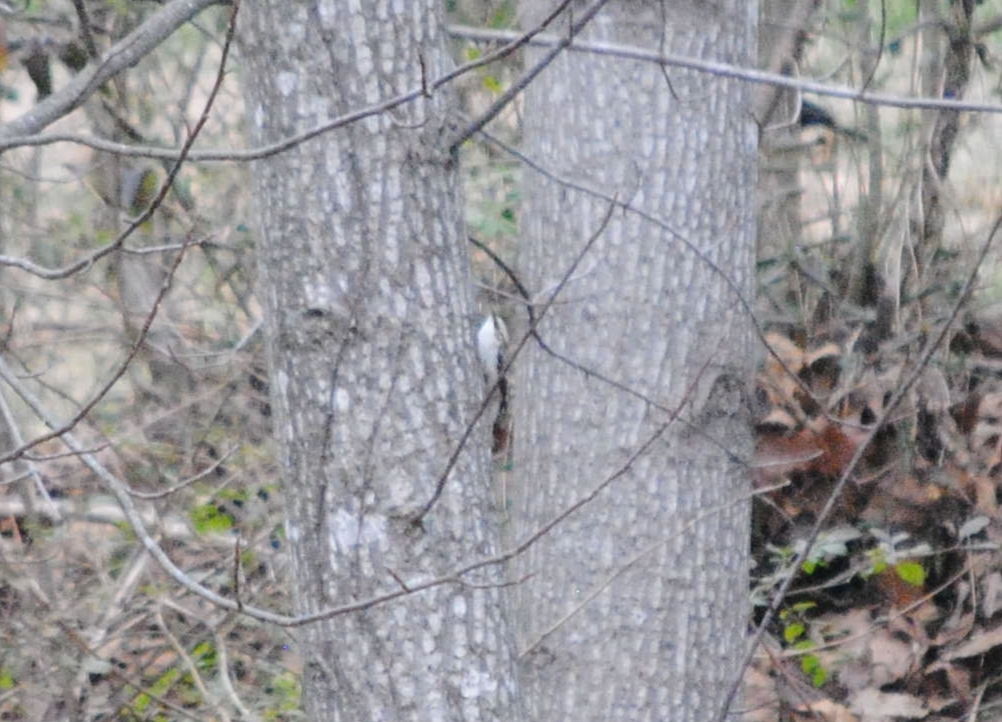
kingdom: Animalia
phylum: Chordata
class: Aves
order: Passeriformes
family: Certhiidae
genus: Certhia
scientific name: Certhia americana
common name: Brown creeper
